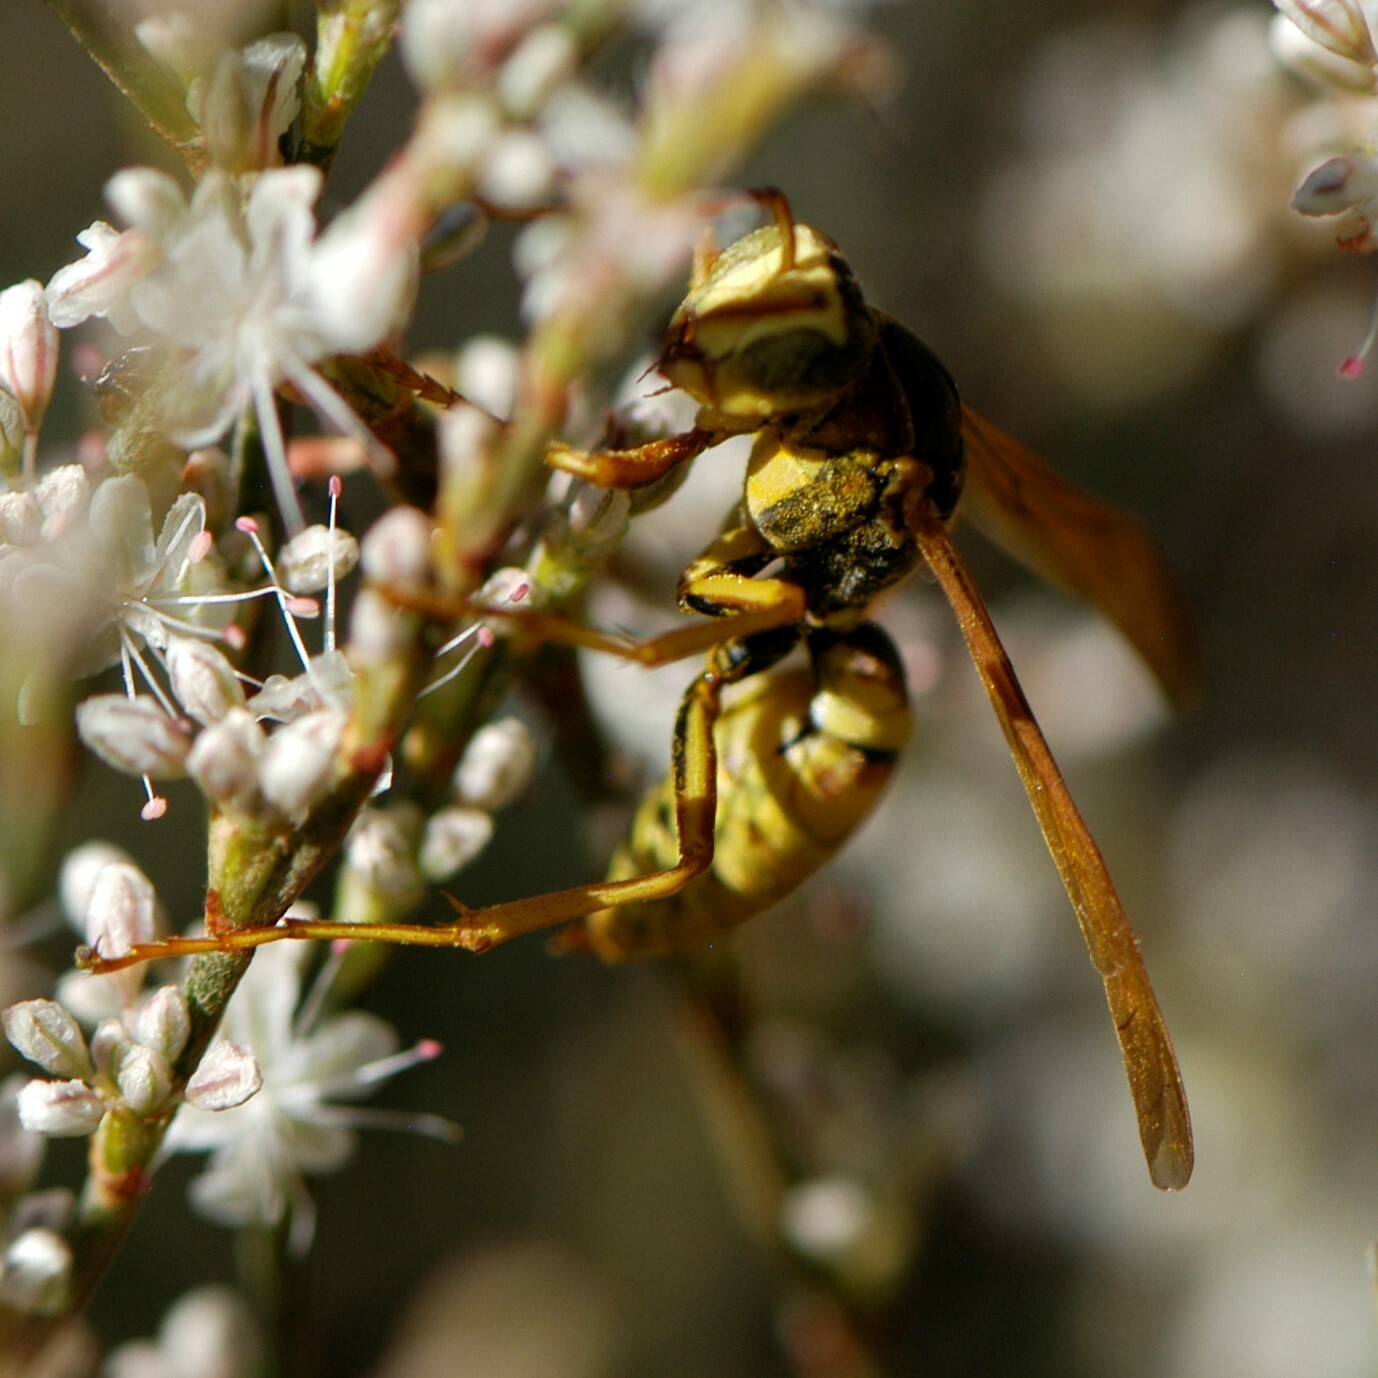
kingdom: Animalia
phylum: Arthropoda
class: Insecta
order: Hymenoptera
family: Eumenidae
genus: Polistes
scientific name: Polistes aurifer
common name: Paper wasp
